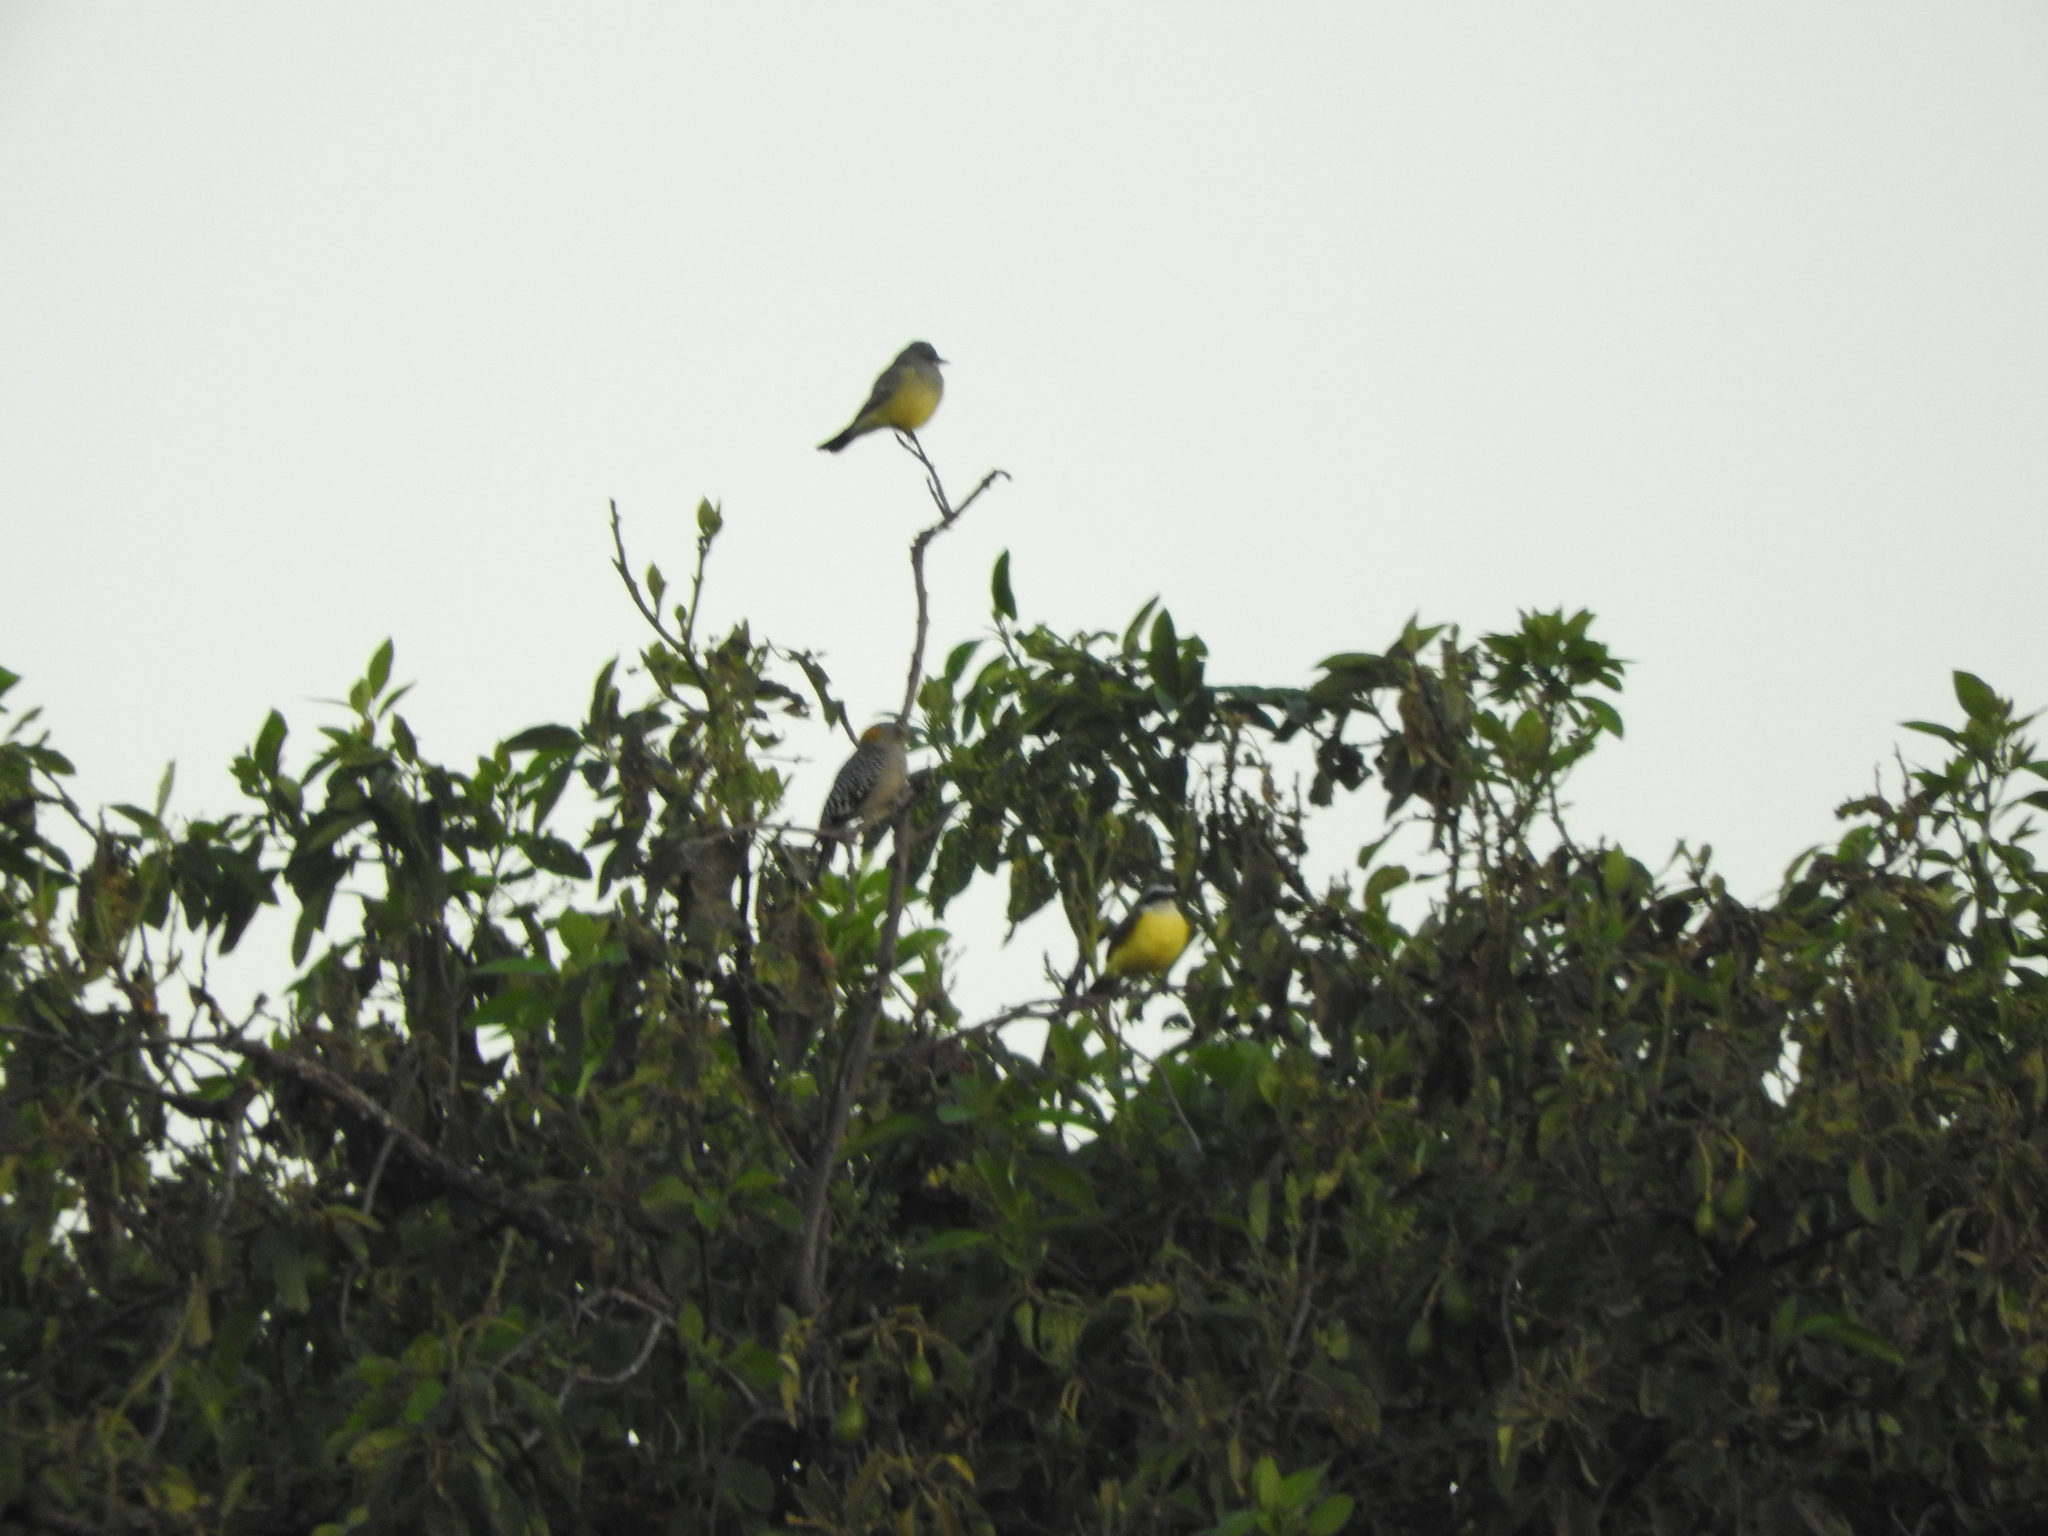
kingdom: Animalia
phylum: Chordata
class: Aves
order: Piciformes
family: Picidae
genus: Melanerpes
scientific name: Melanerpes aurifrons
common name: Golden-fronted woodpecker
